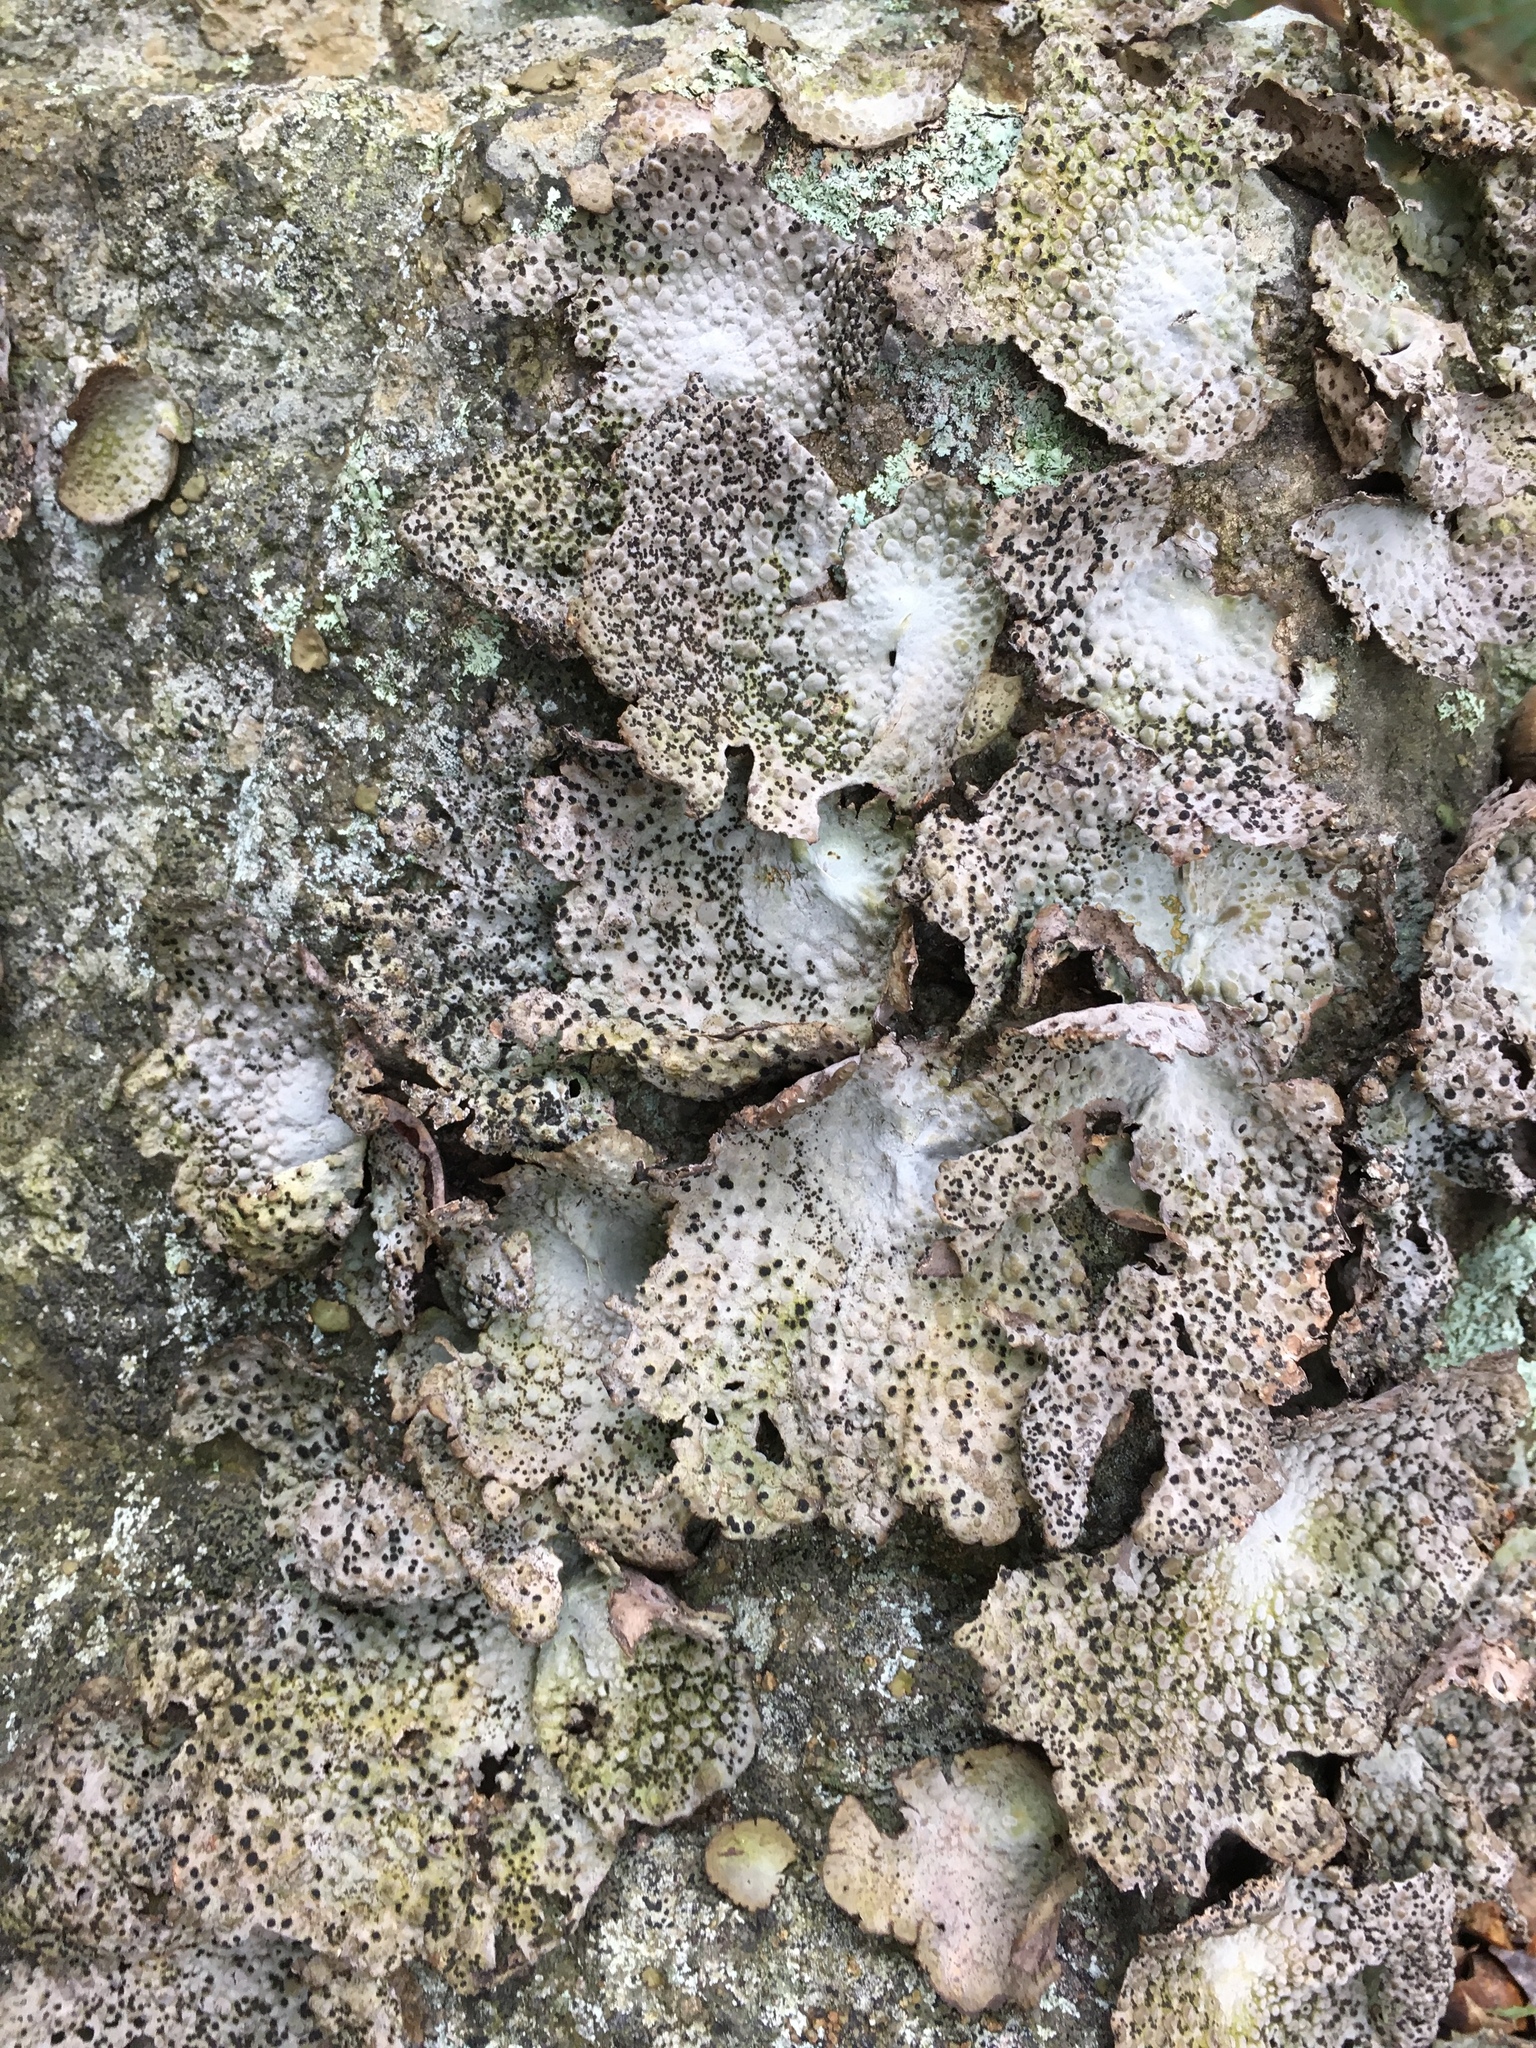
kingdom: Fungi
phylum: Ascomycota
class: Lecanoromycetes
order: Umbilicariales
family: Umbilicariaceae
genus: Lasallia
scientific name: Lasallia papulosa
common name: Common toadskin lichen
